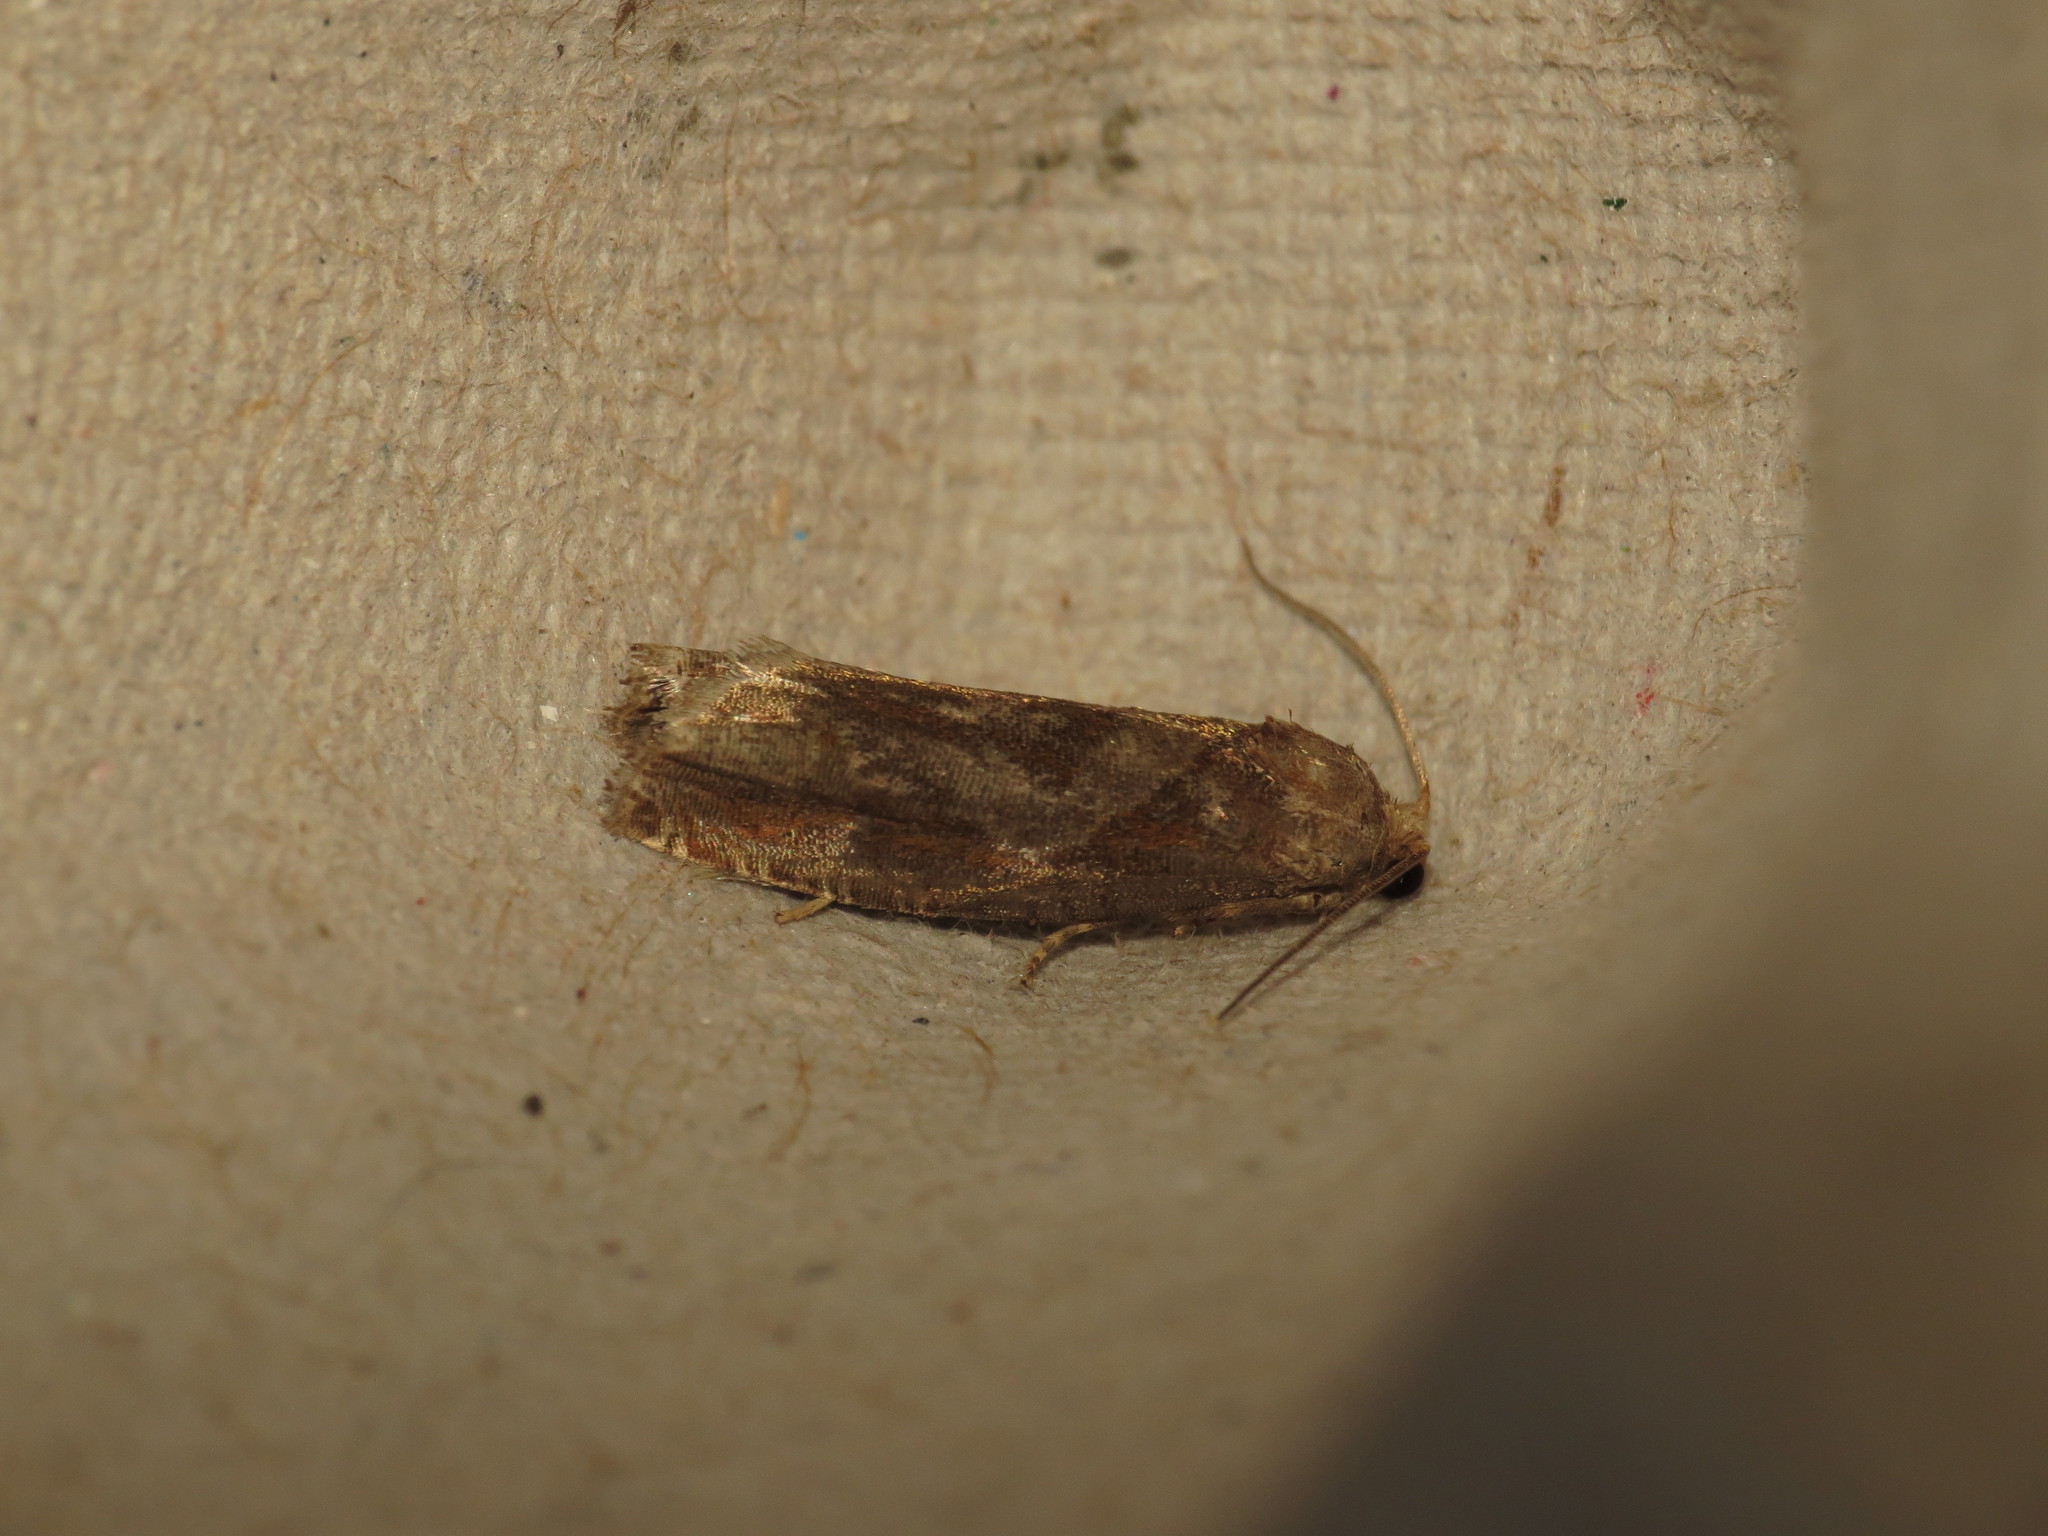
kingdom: Animalia
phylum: Arthropoda
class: Insecta
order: Lepidoptera
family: Tortricidae
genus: Epiblema
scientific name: Epiblema foenella
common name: White-foot bell
